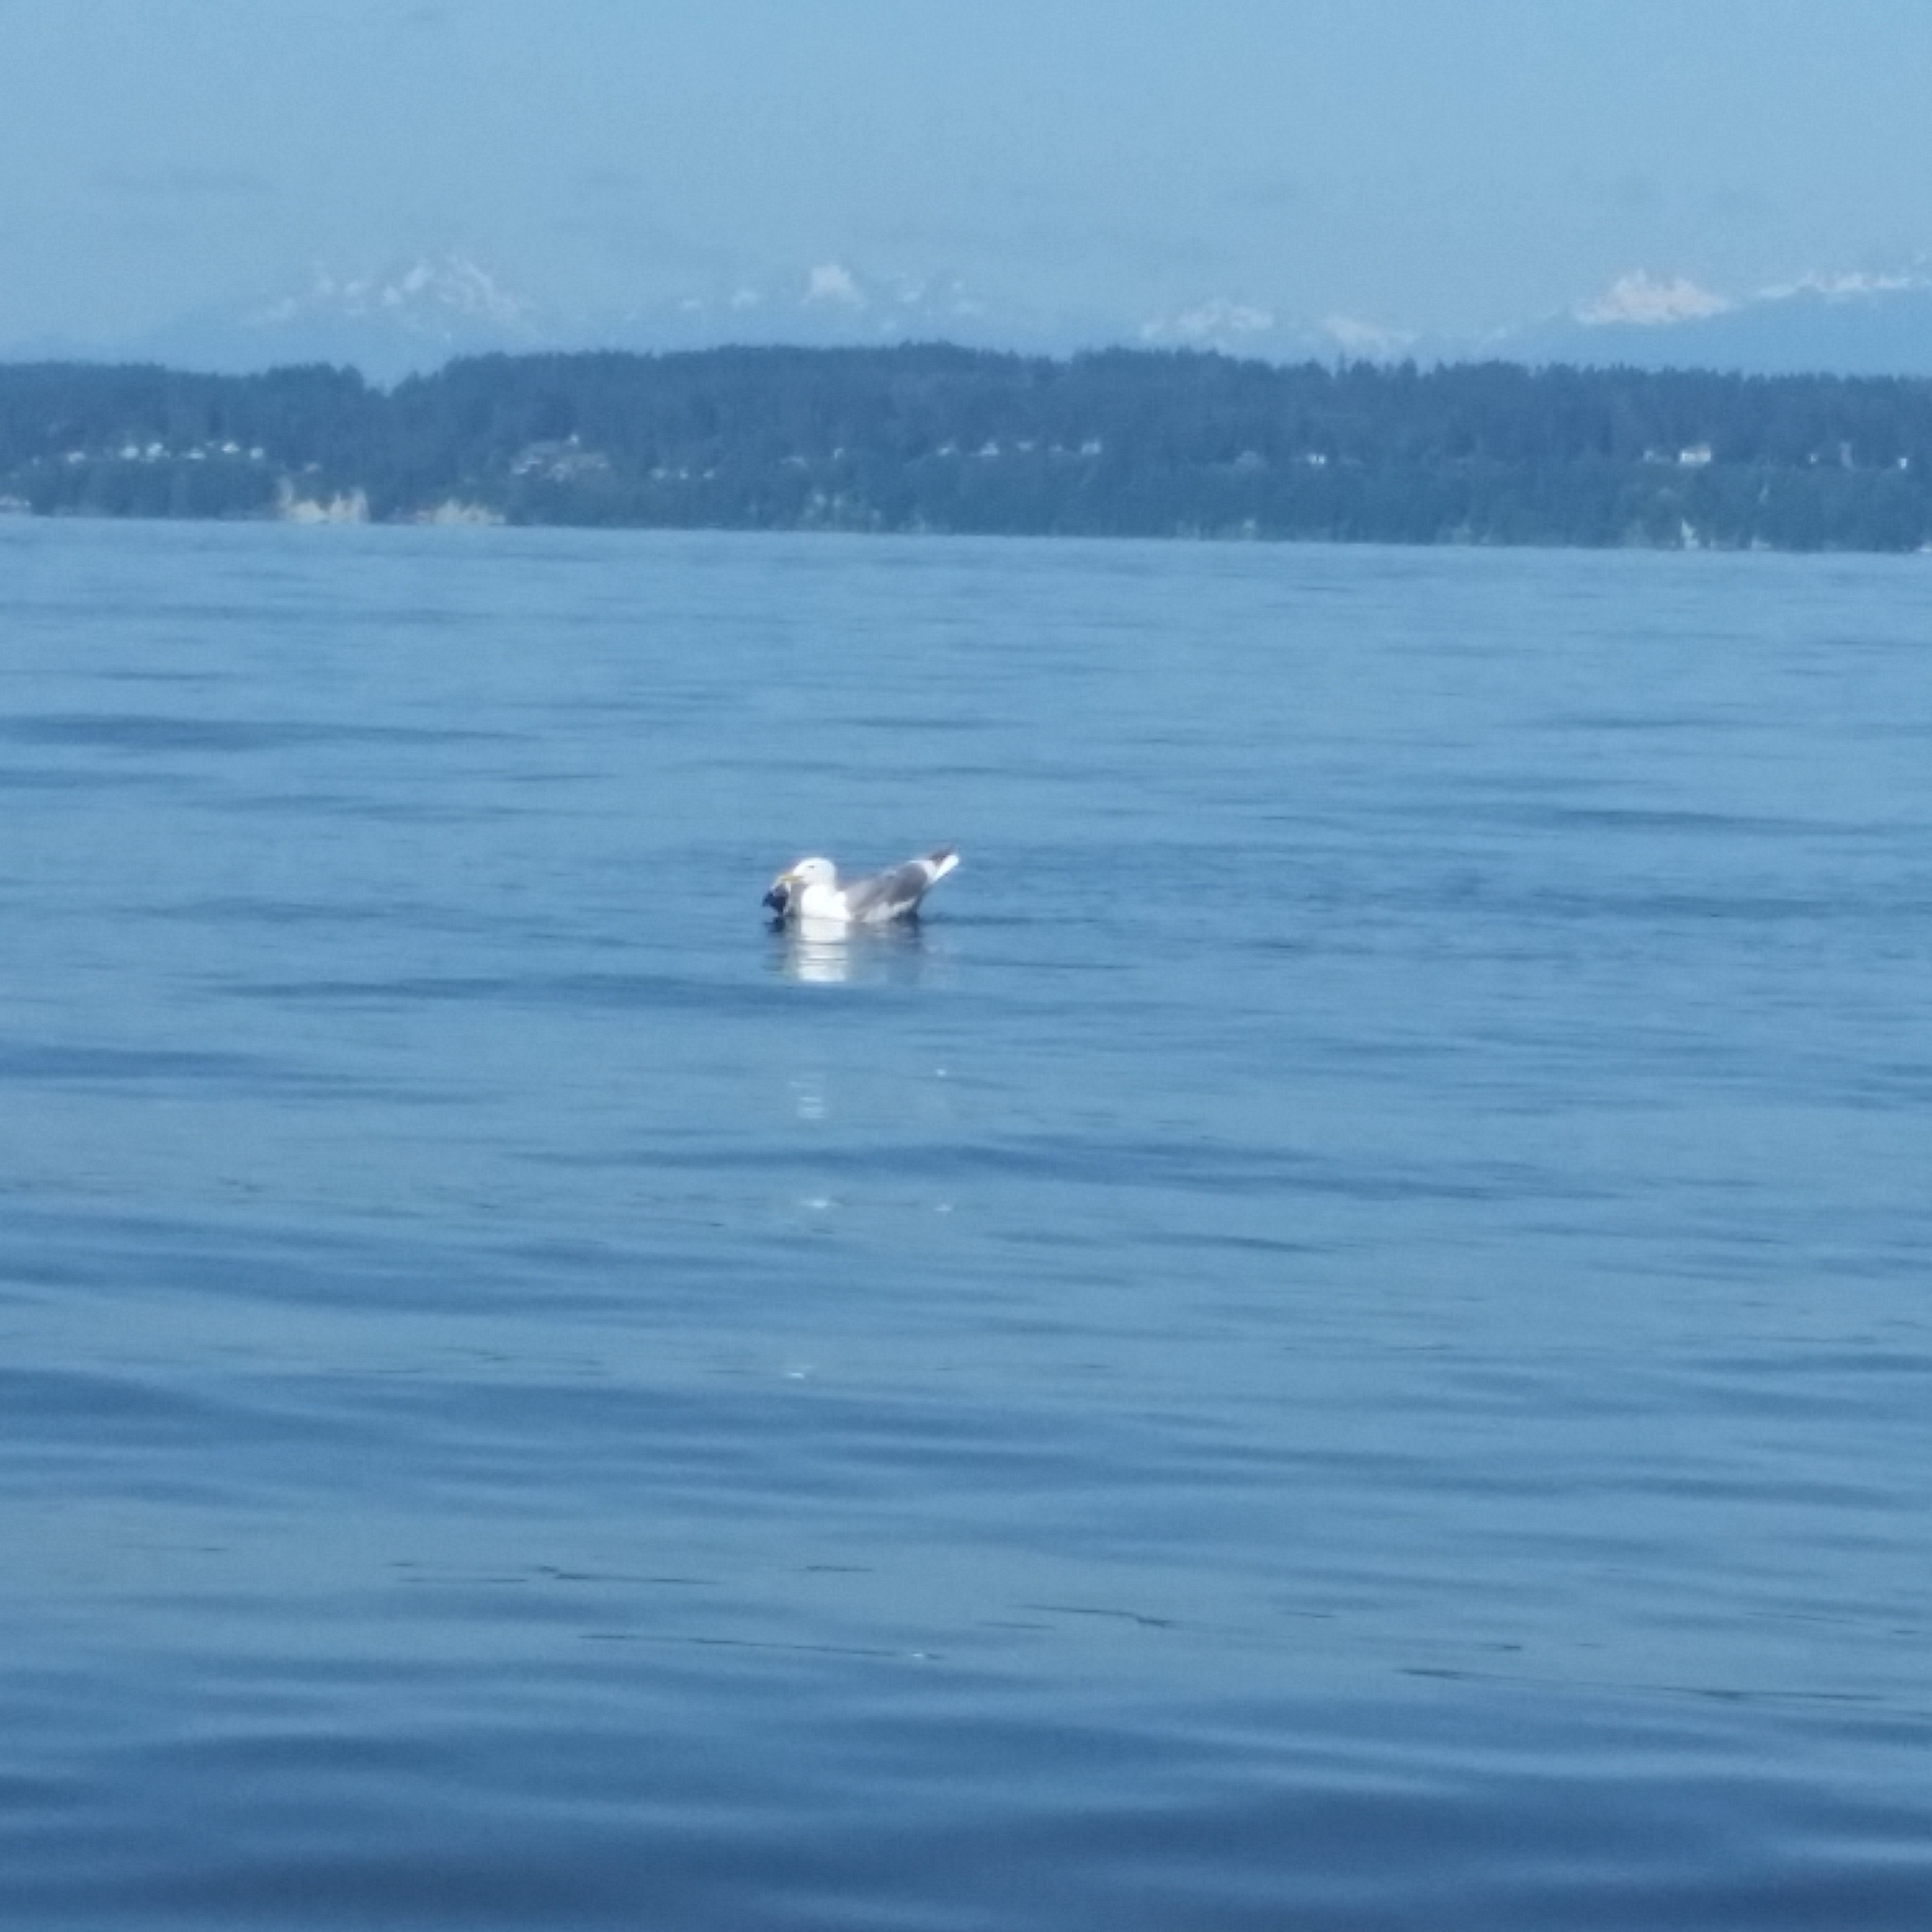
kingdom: Animalia
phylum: Chordata
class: Aves
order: Charadriiformes
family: Laridae
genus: Larus
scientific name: Larus
